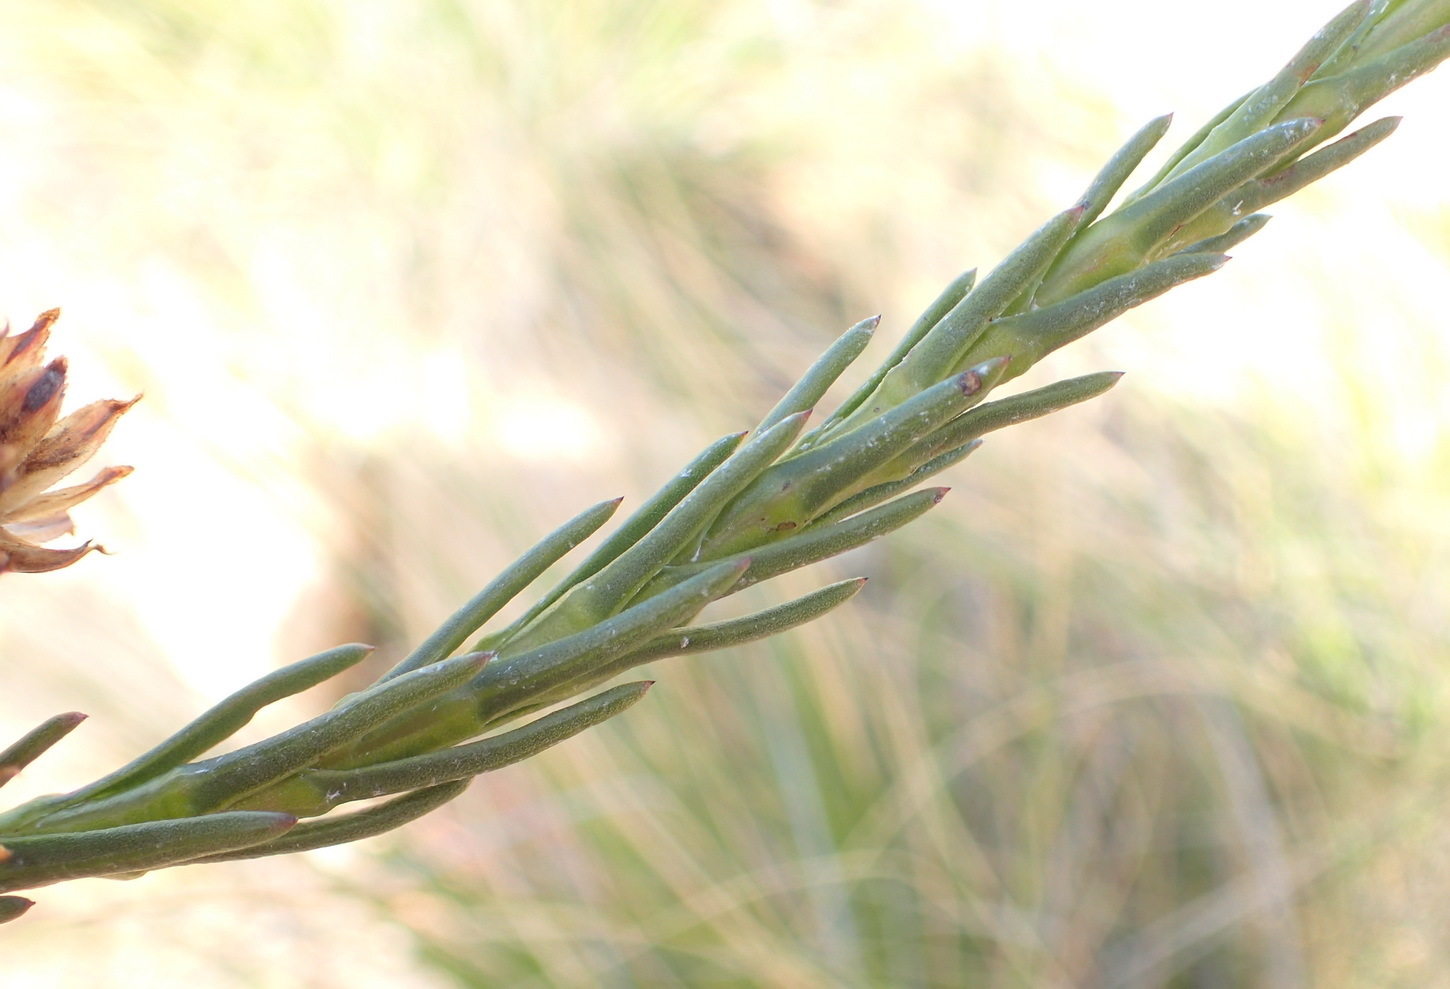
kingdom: Plantae
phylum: Tracheophyta
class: Magnoliopsida
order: Asterales
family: Asteraceae
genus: Athanasia
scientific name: Athanasia linifolia
